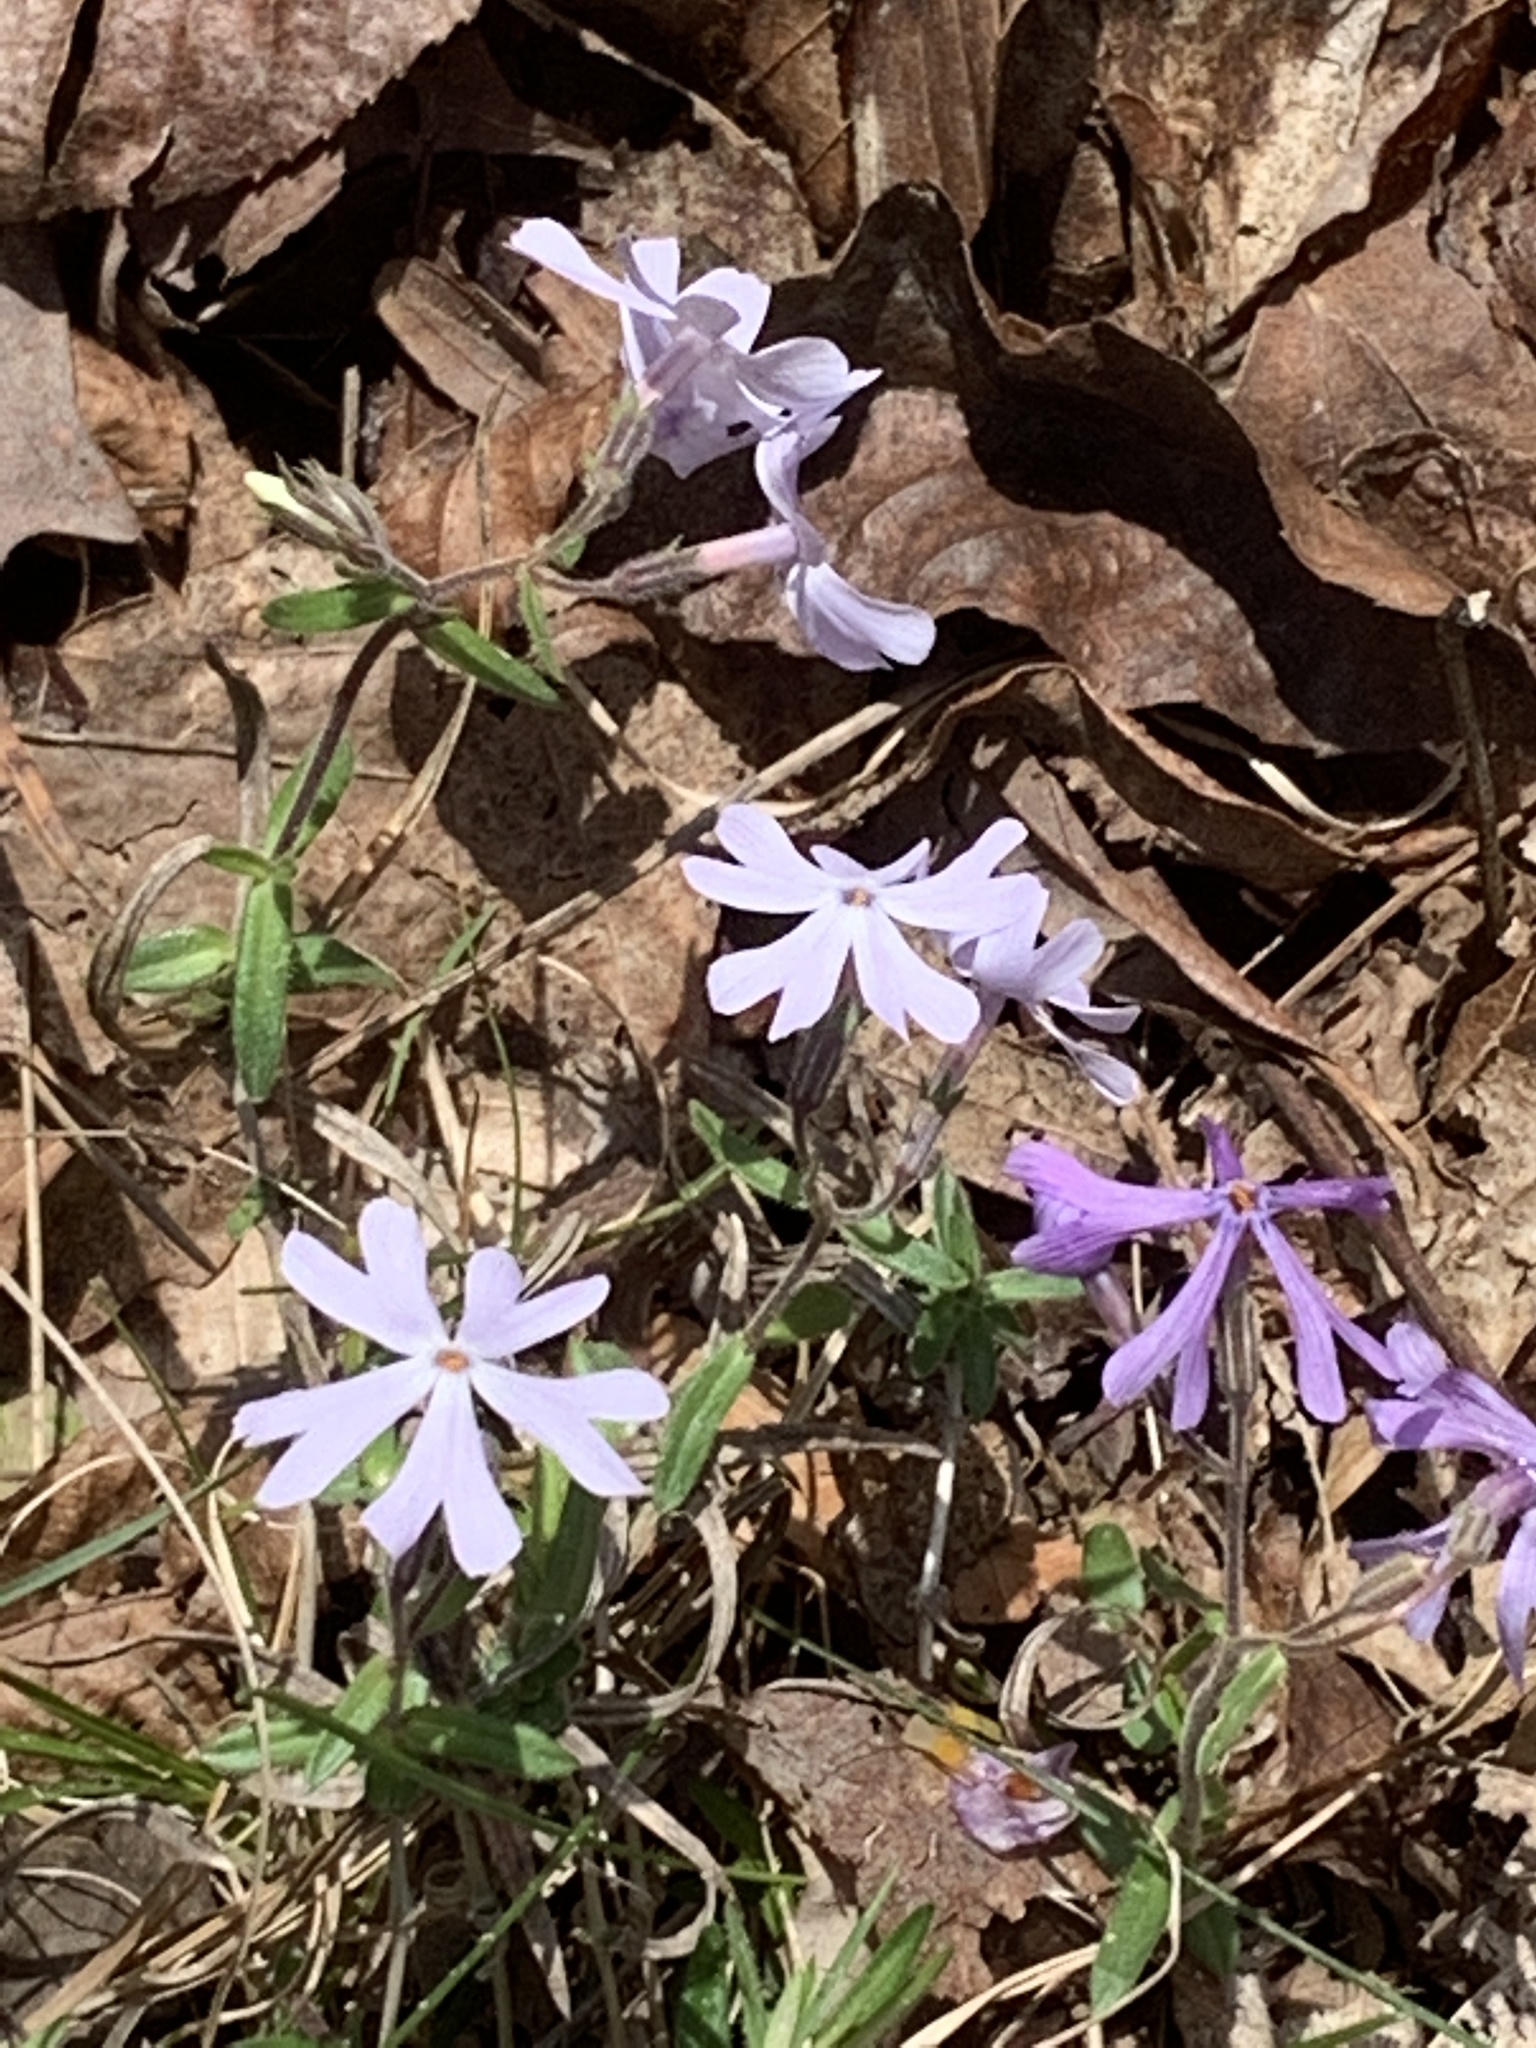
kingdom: Plantae
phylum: Tracheophyta
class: Magnoliopsida
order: Ericales
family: Polemoniaceae
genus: Phlox
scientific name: Phlox bifida
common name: Sand phlox
